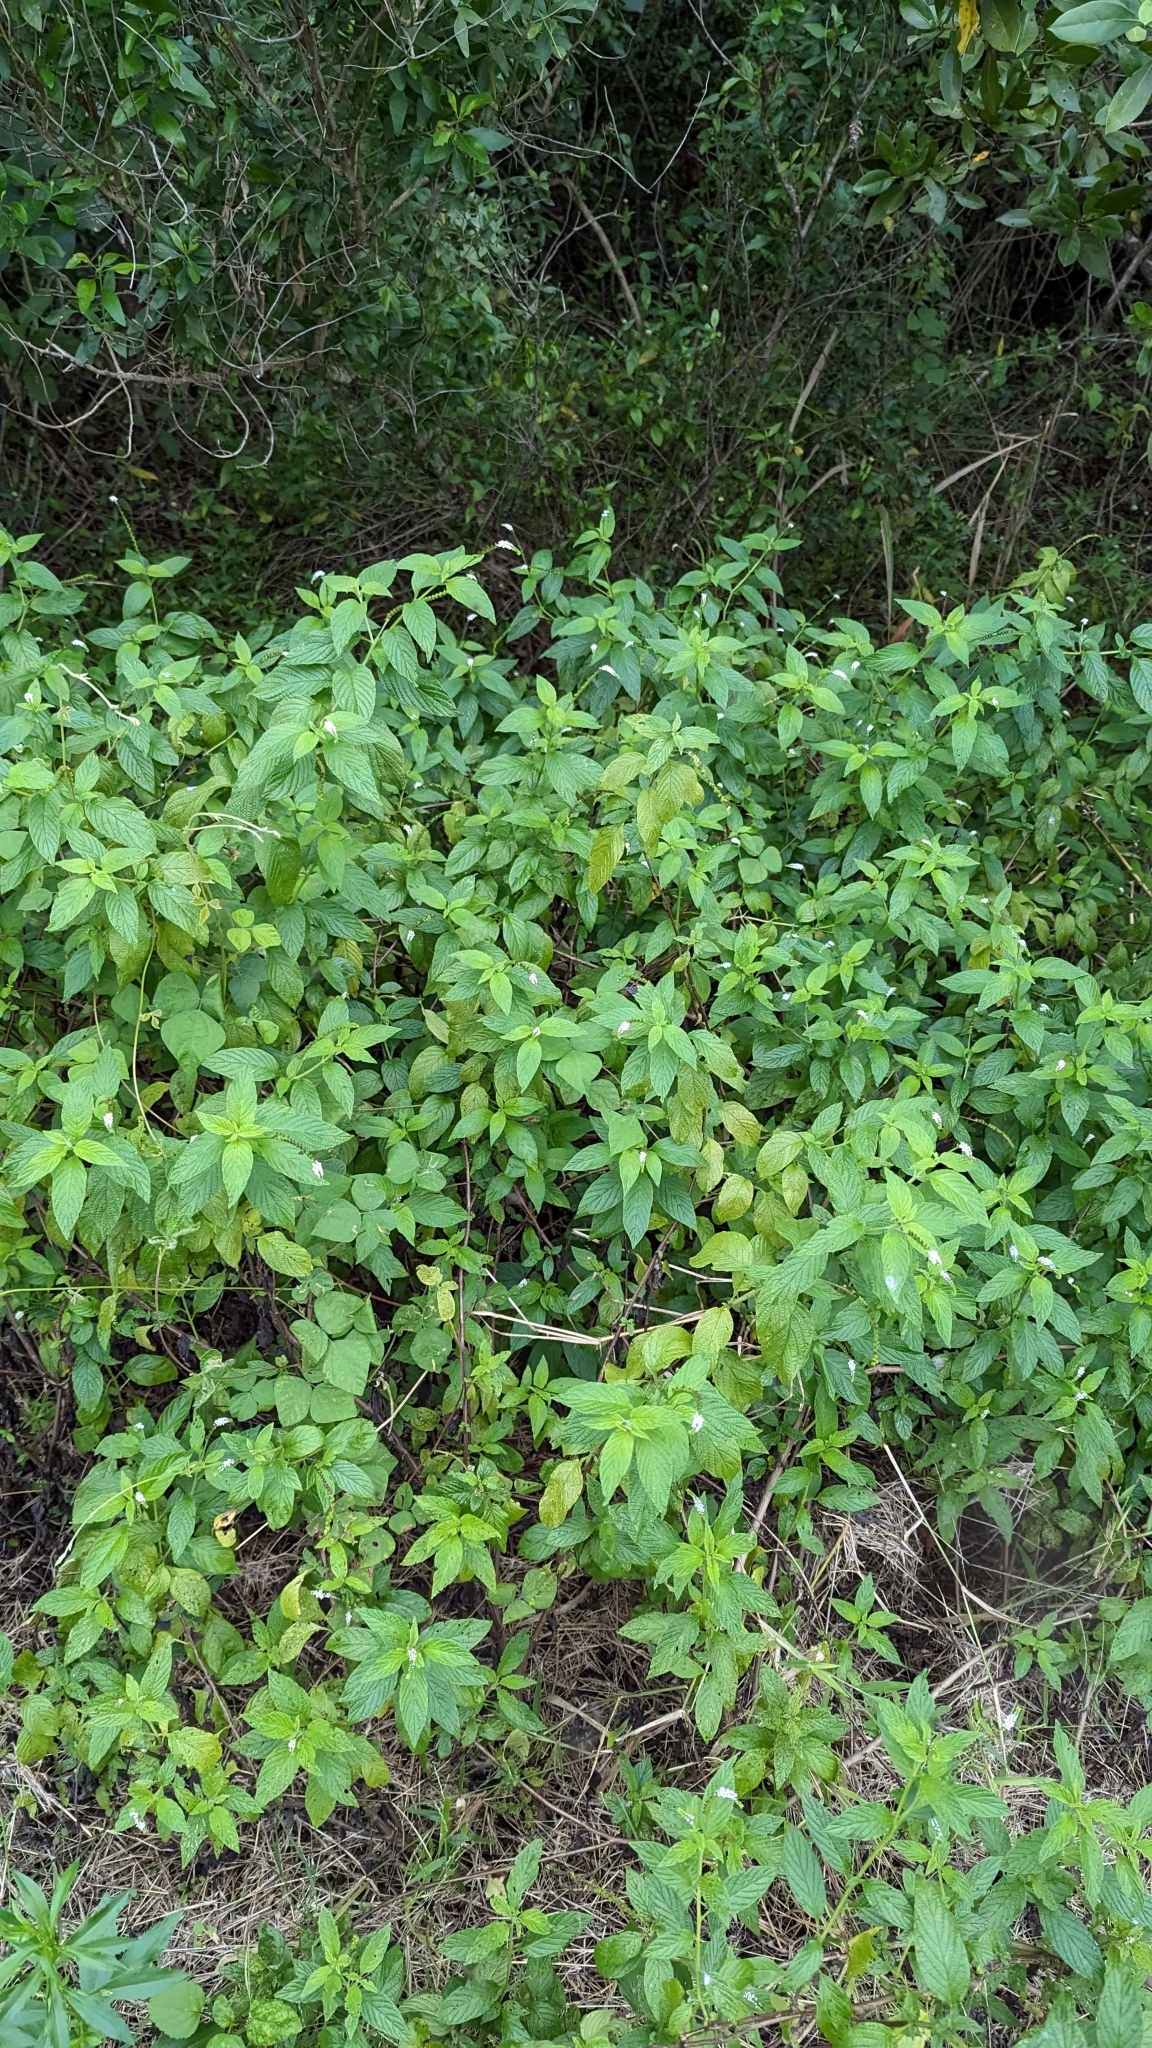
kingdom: Plantae
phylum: Tracheophyta
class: Magnoliopsida
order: Boraginales
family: Heliotropiaceae
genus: Heliotropium
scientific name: Heliotropium angiospermum
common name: Eye bright
